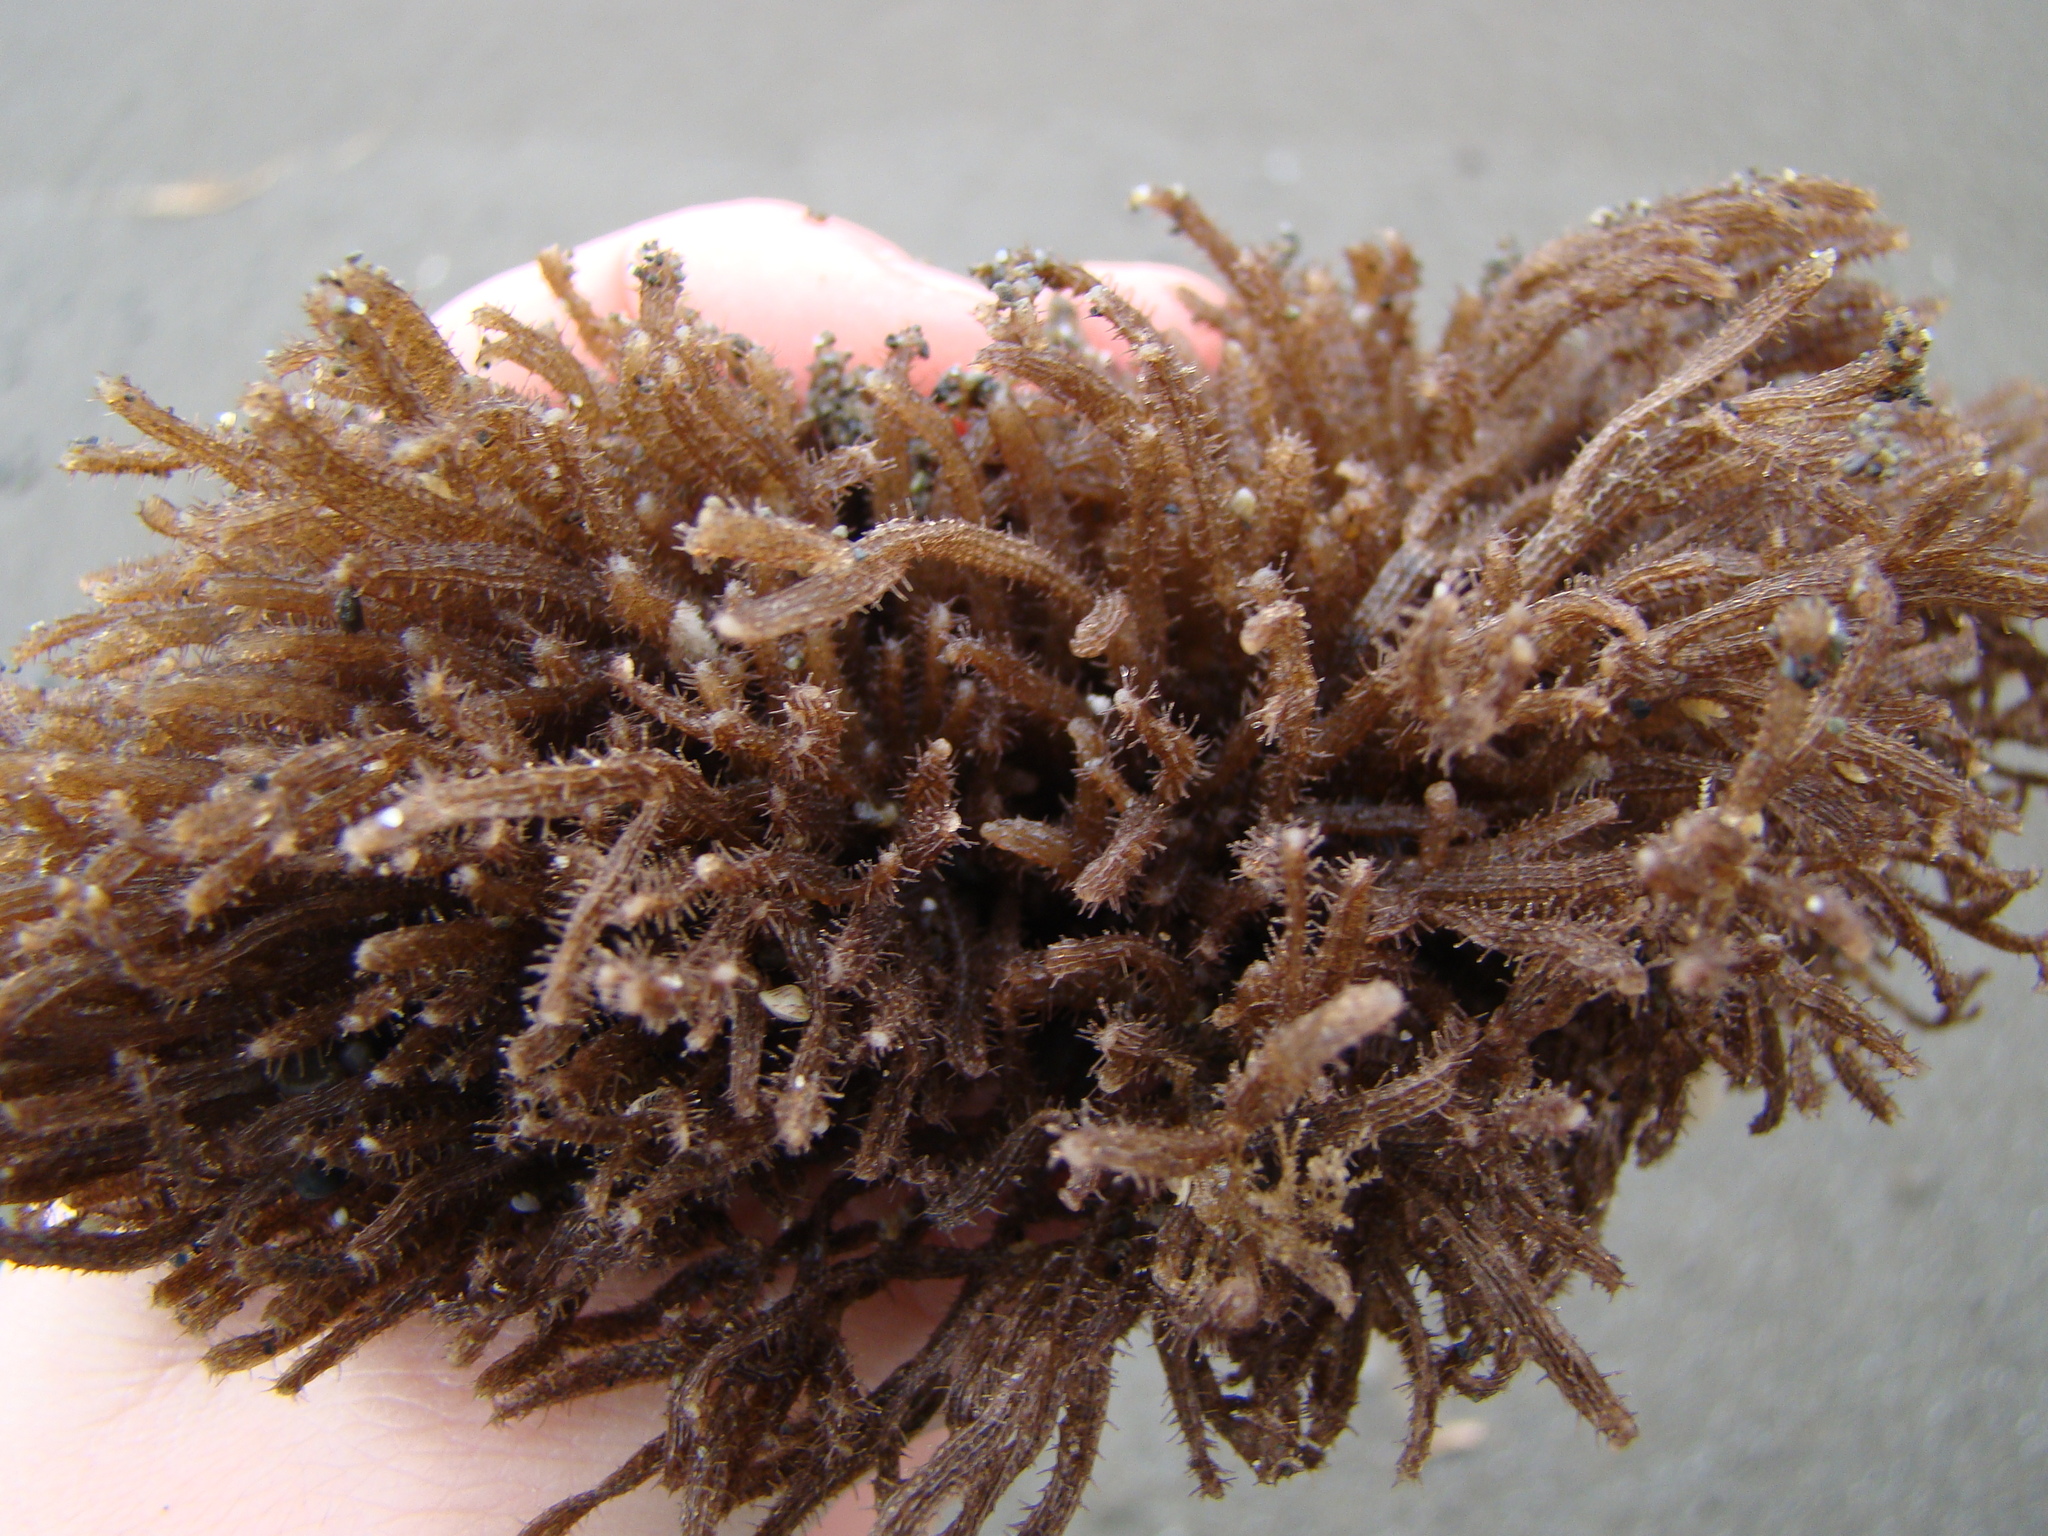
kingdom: Animalia
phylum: Bryozoa
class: Gymnolaemata
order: Ctenostomatida
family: Flustrellidridae
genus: Elzerina
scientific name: Elzerina binderi
